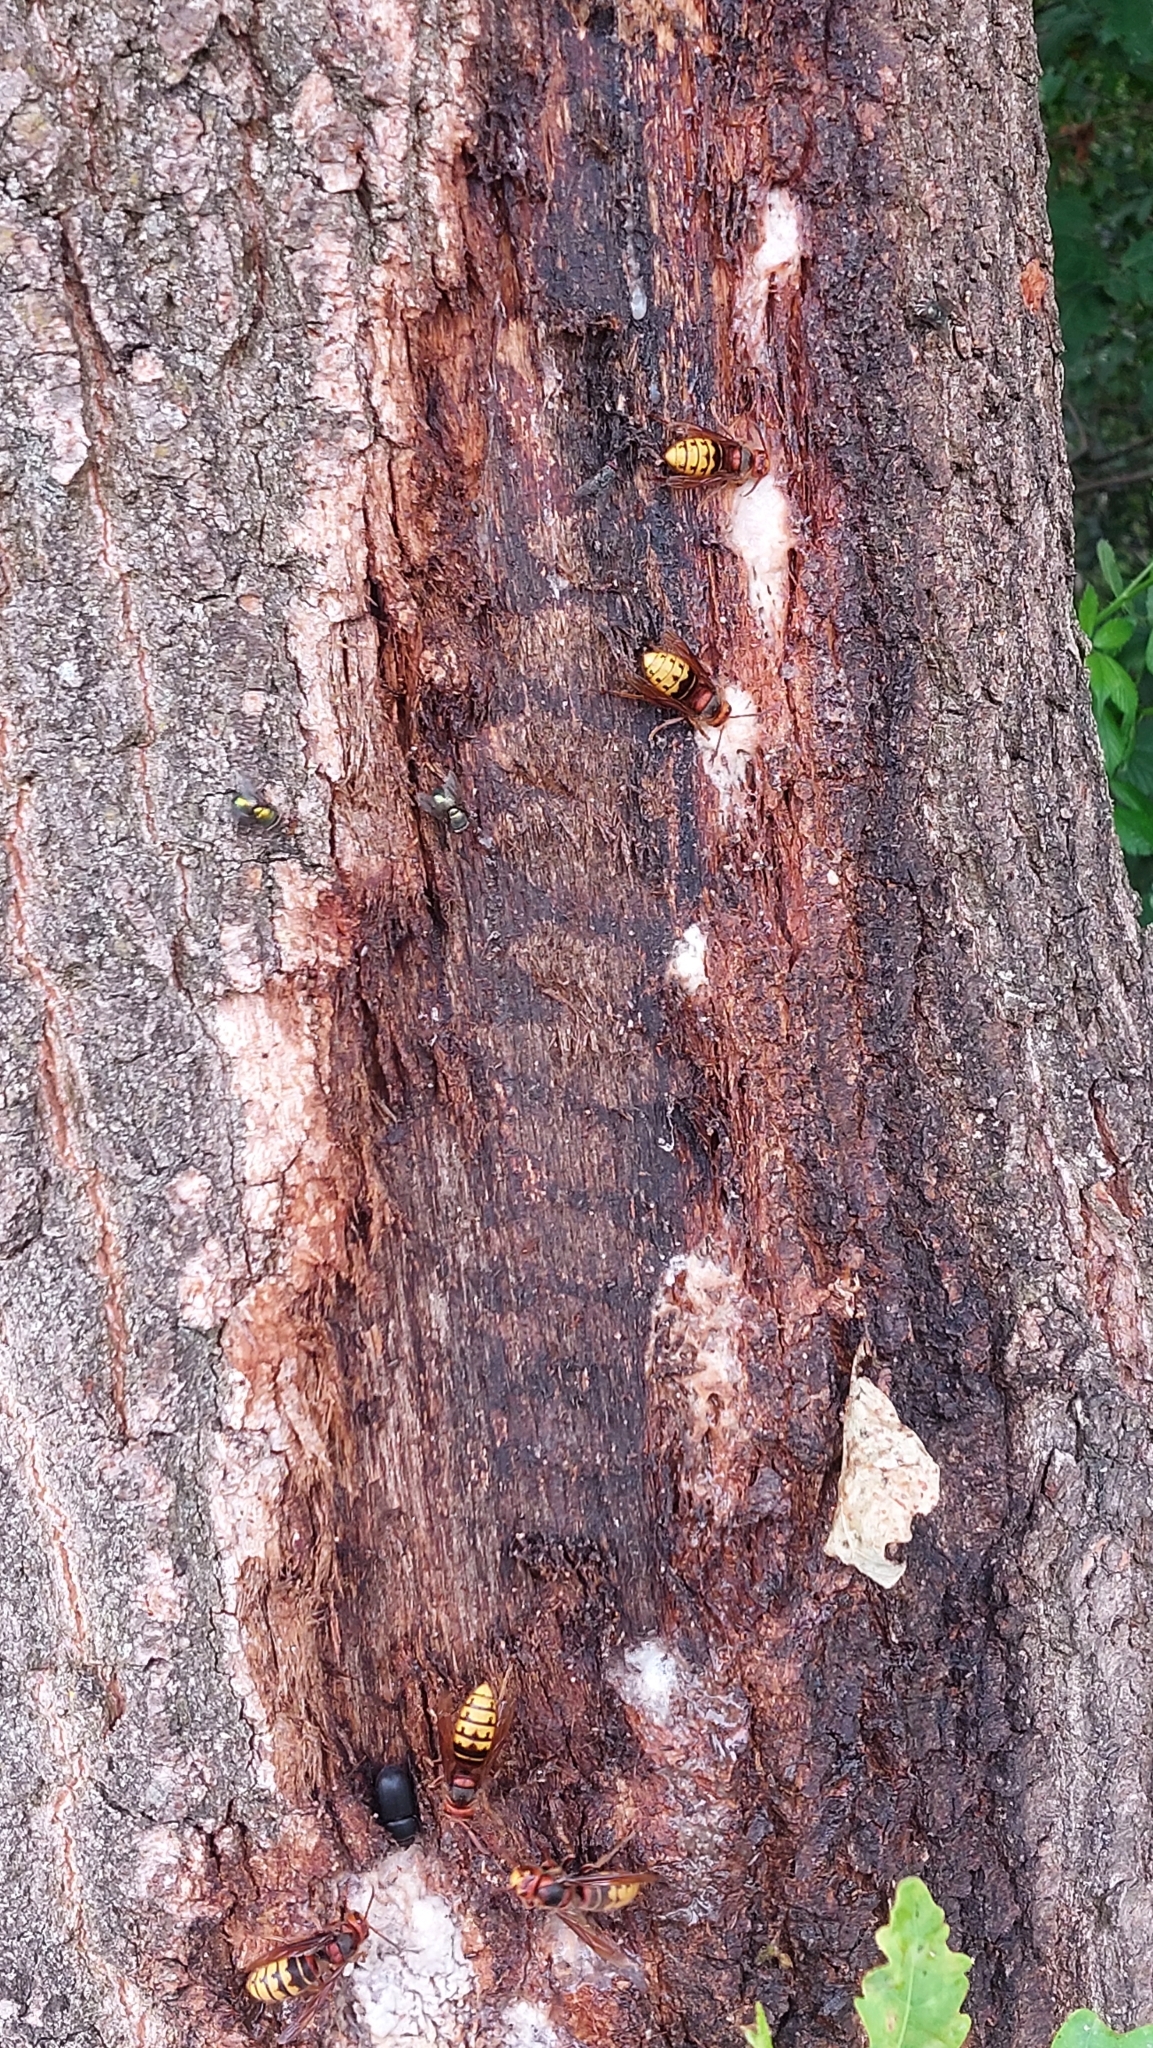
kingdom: Animalia
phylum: Arthropoda
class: Insecta
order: Hymenoptera
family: Vespidae
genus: Vespa
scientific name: Vespa crabro
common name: Hornet
